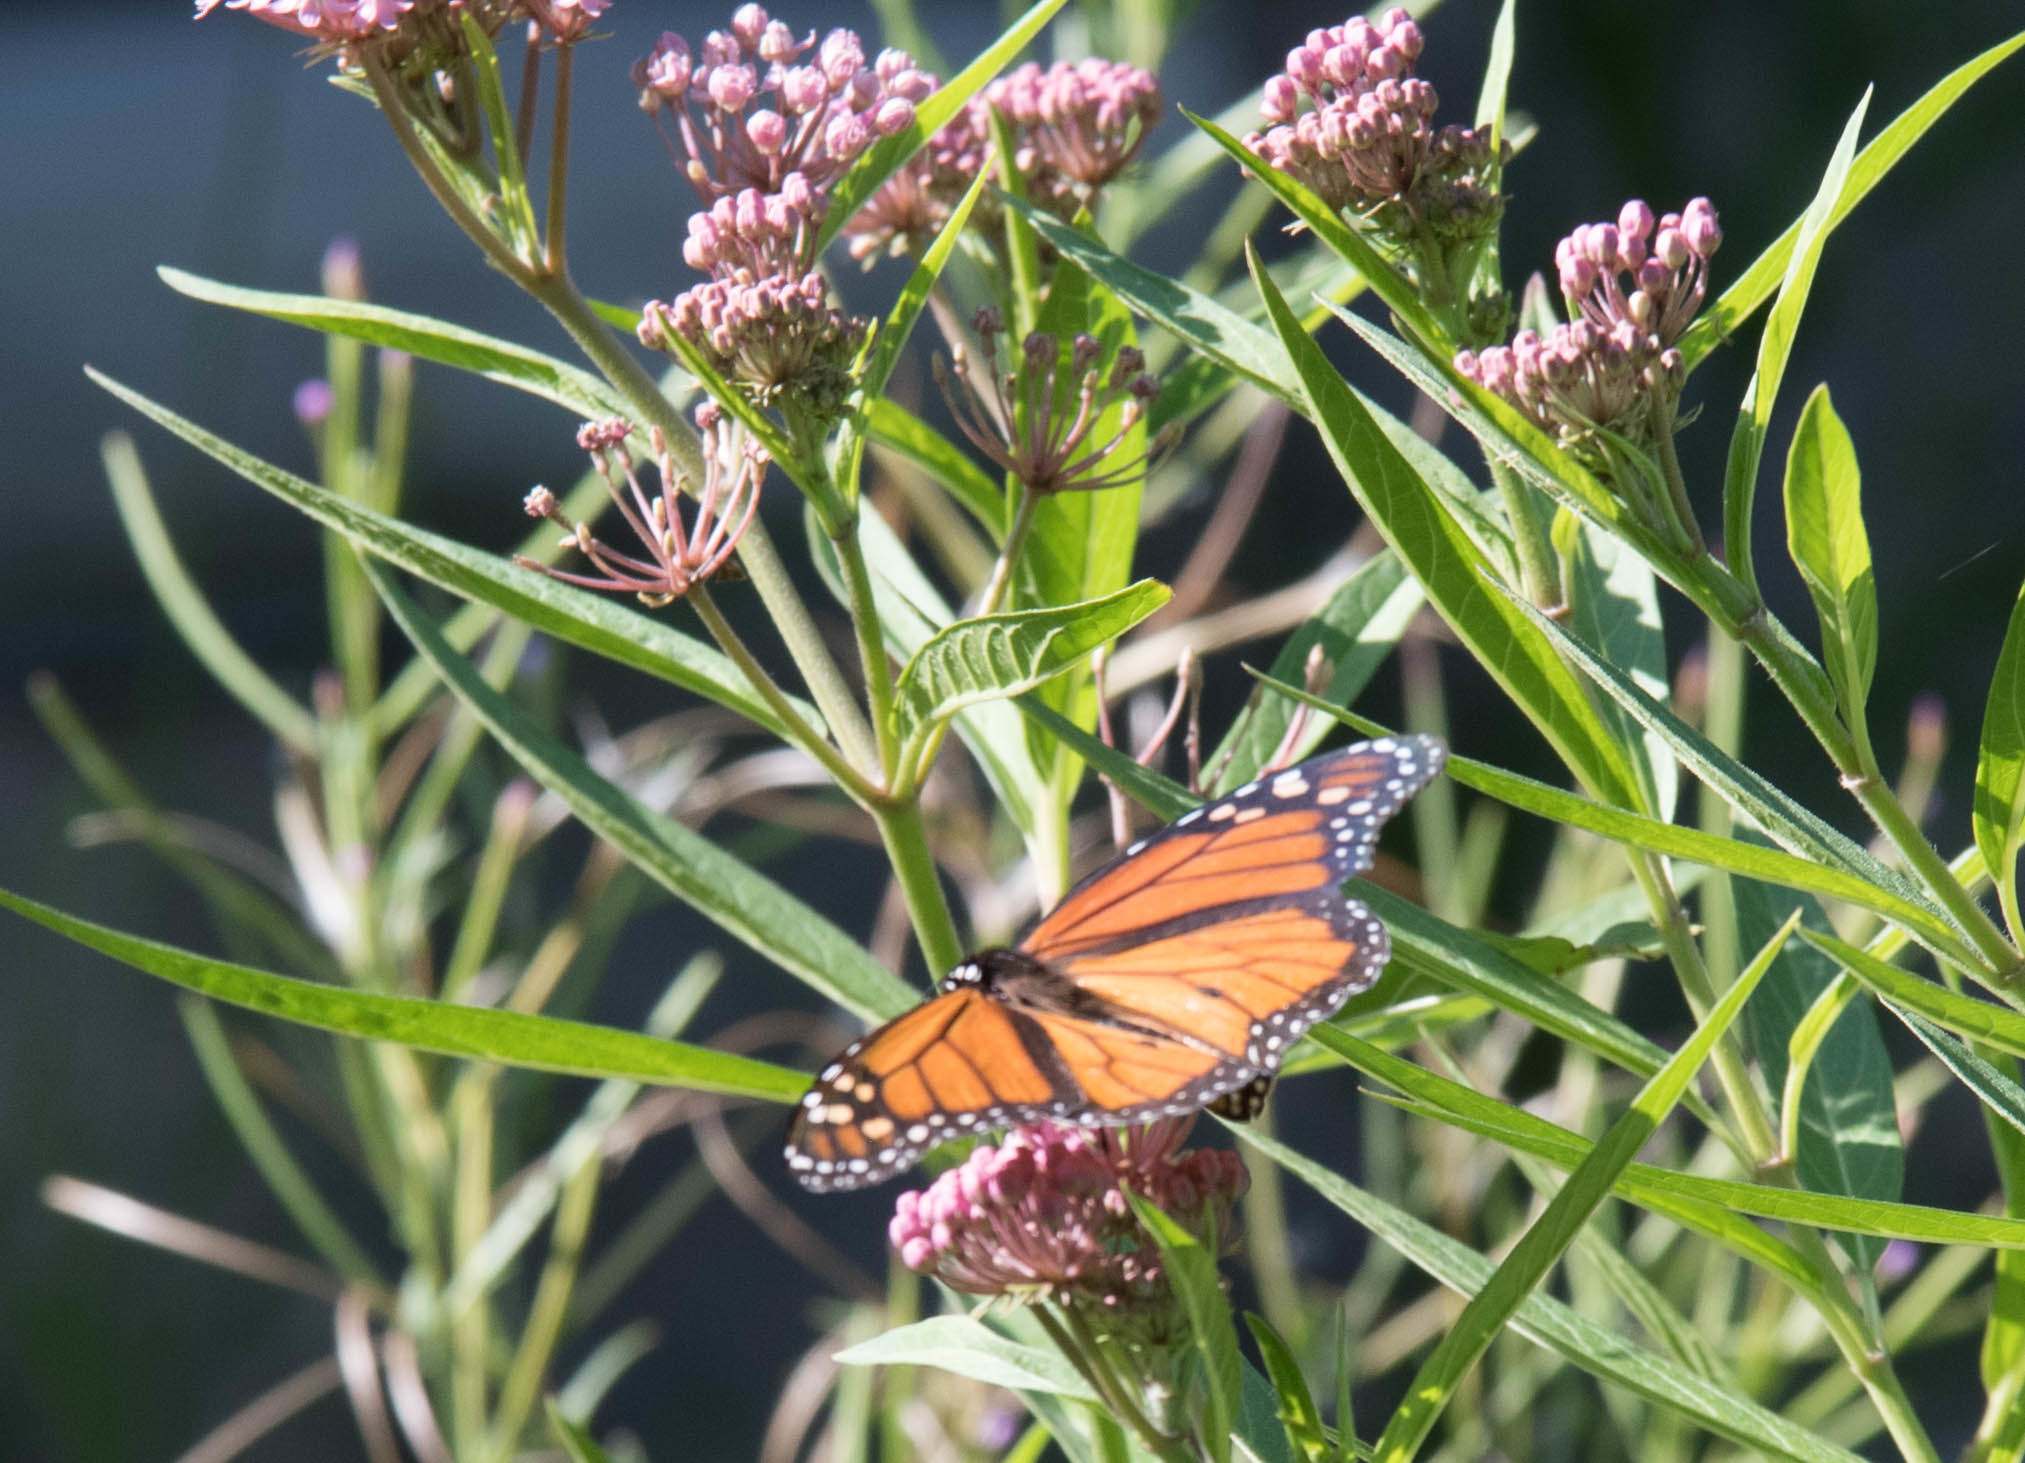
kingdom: Animalia
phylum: Arthropoda
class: Insecta
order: Lepidoptera
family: Nymphalidae
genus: Danaus
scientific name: Danaus plexippus
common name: Monarch
